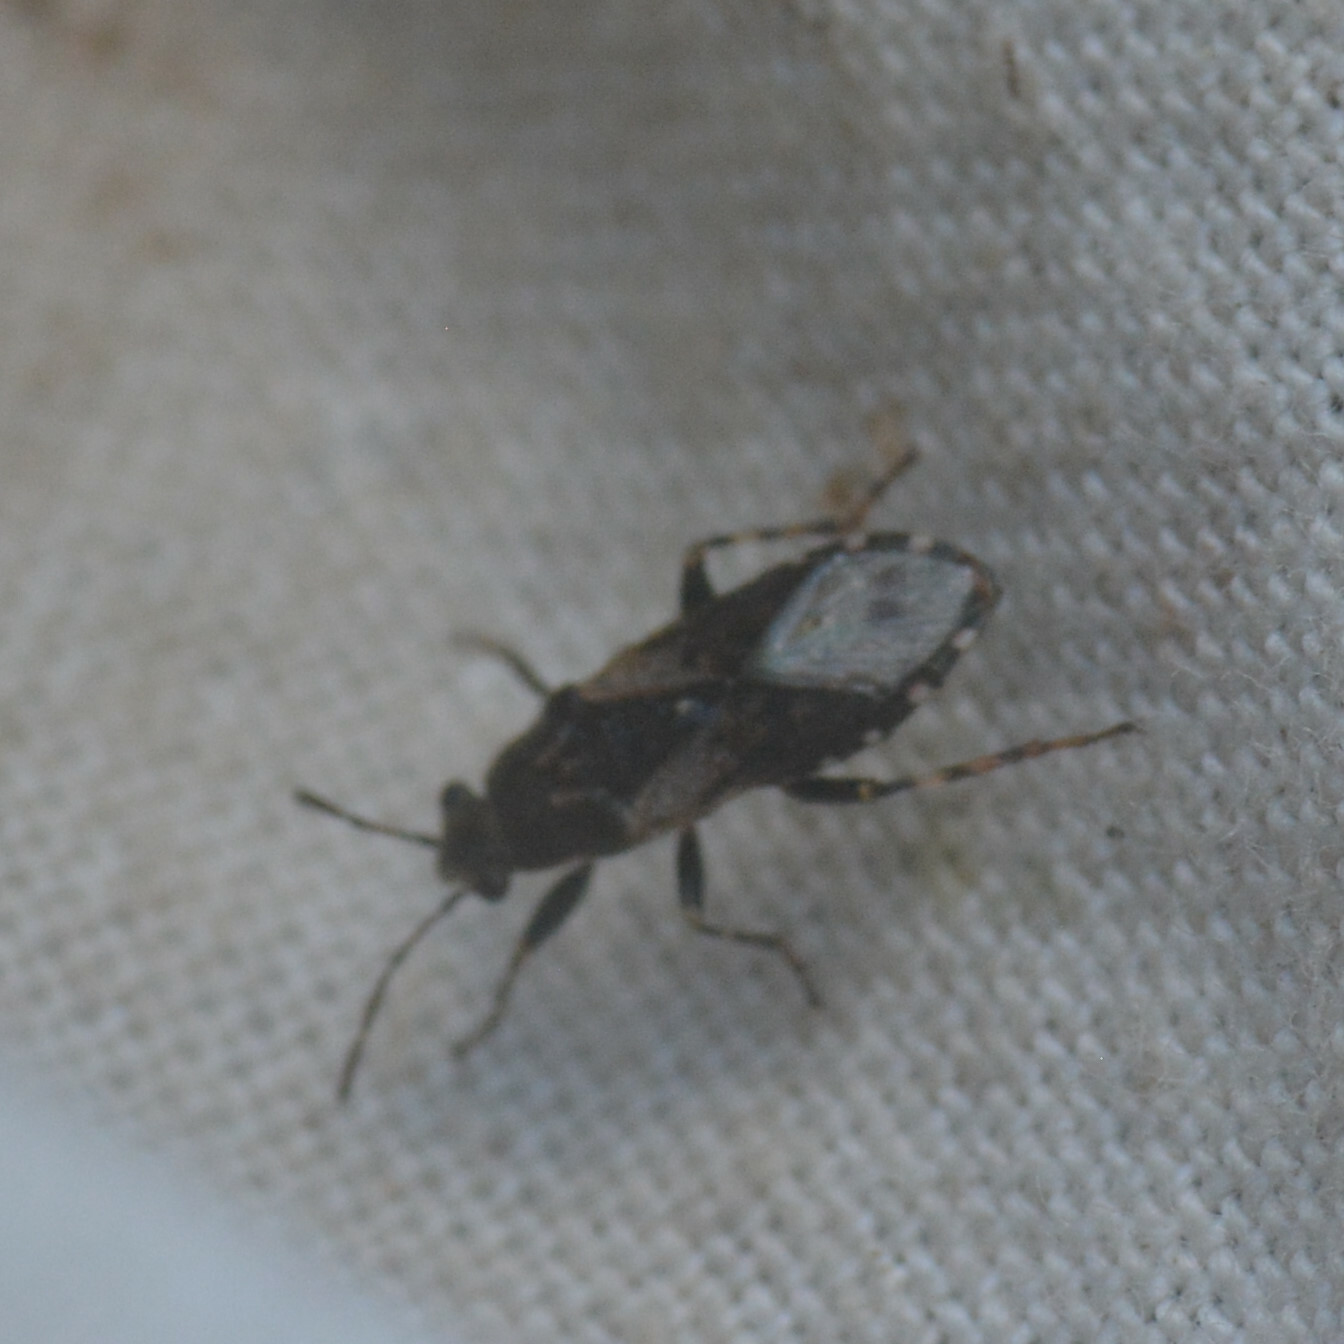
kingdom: Animalia
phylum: Arthropoda
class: Insecta
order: Hemiptera
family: Heterogastridae
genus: Heterogaster
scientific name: Heterogaster urticae
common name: Seed bug
